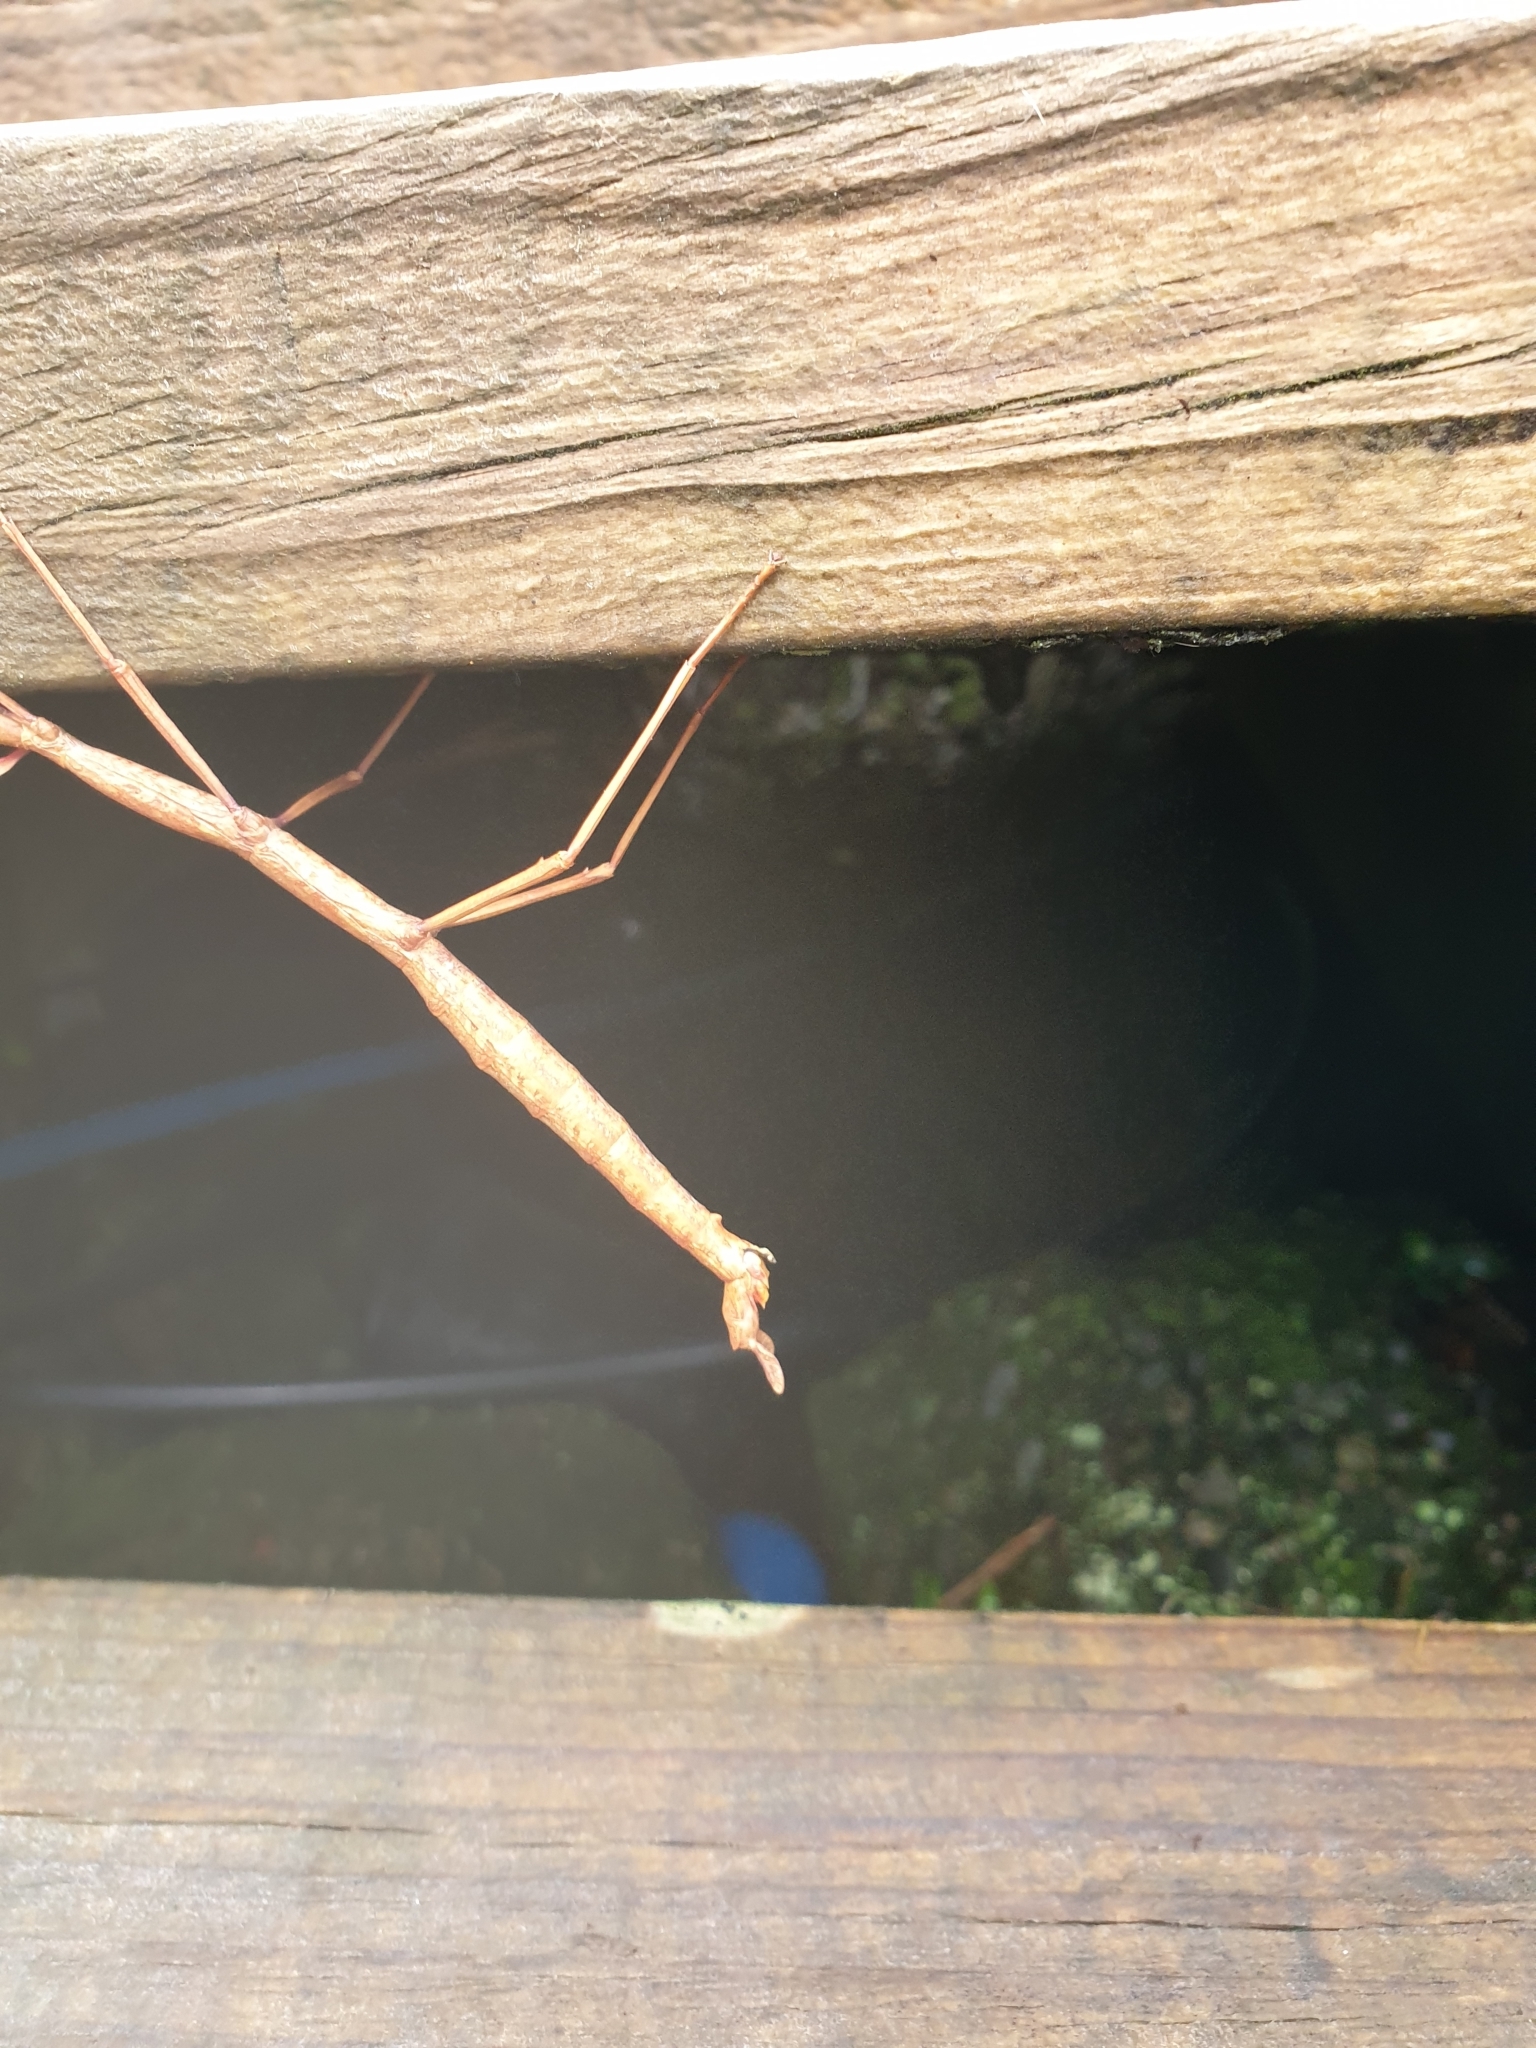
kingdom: Animalia
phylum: Arthropoda
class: Insecta
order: Phasmida
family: Phasmatidae
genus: Acanthoxyla
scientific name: Acanthoxyla inermis
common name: Unarmed stick insect
